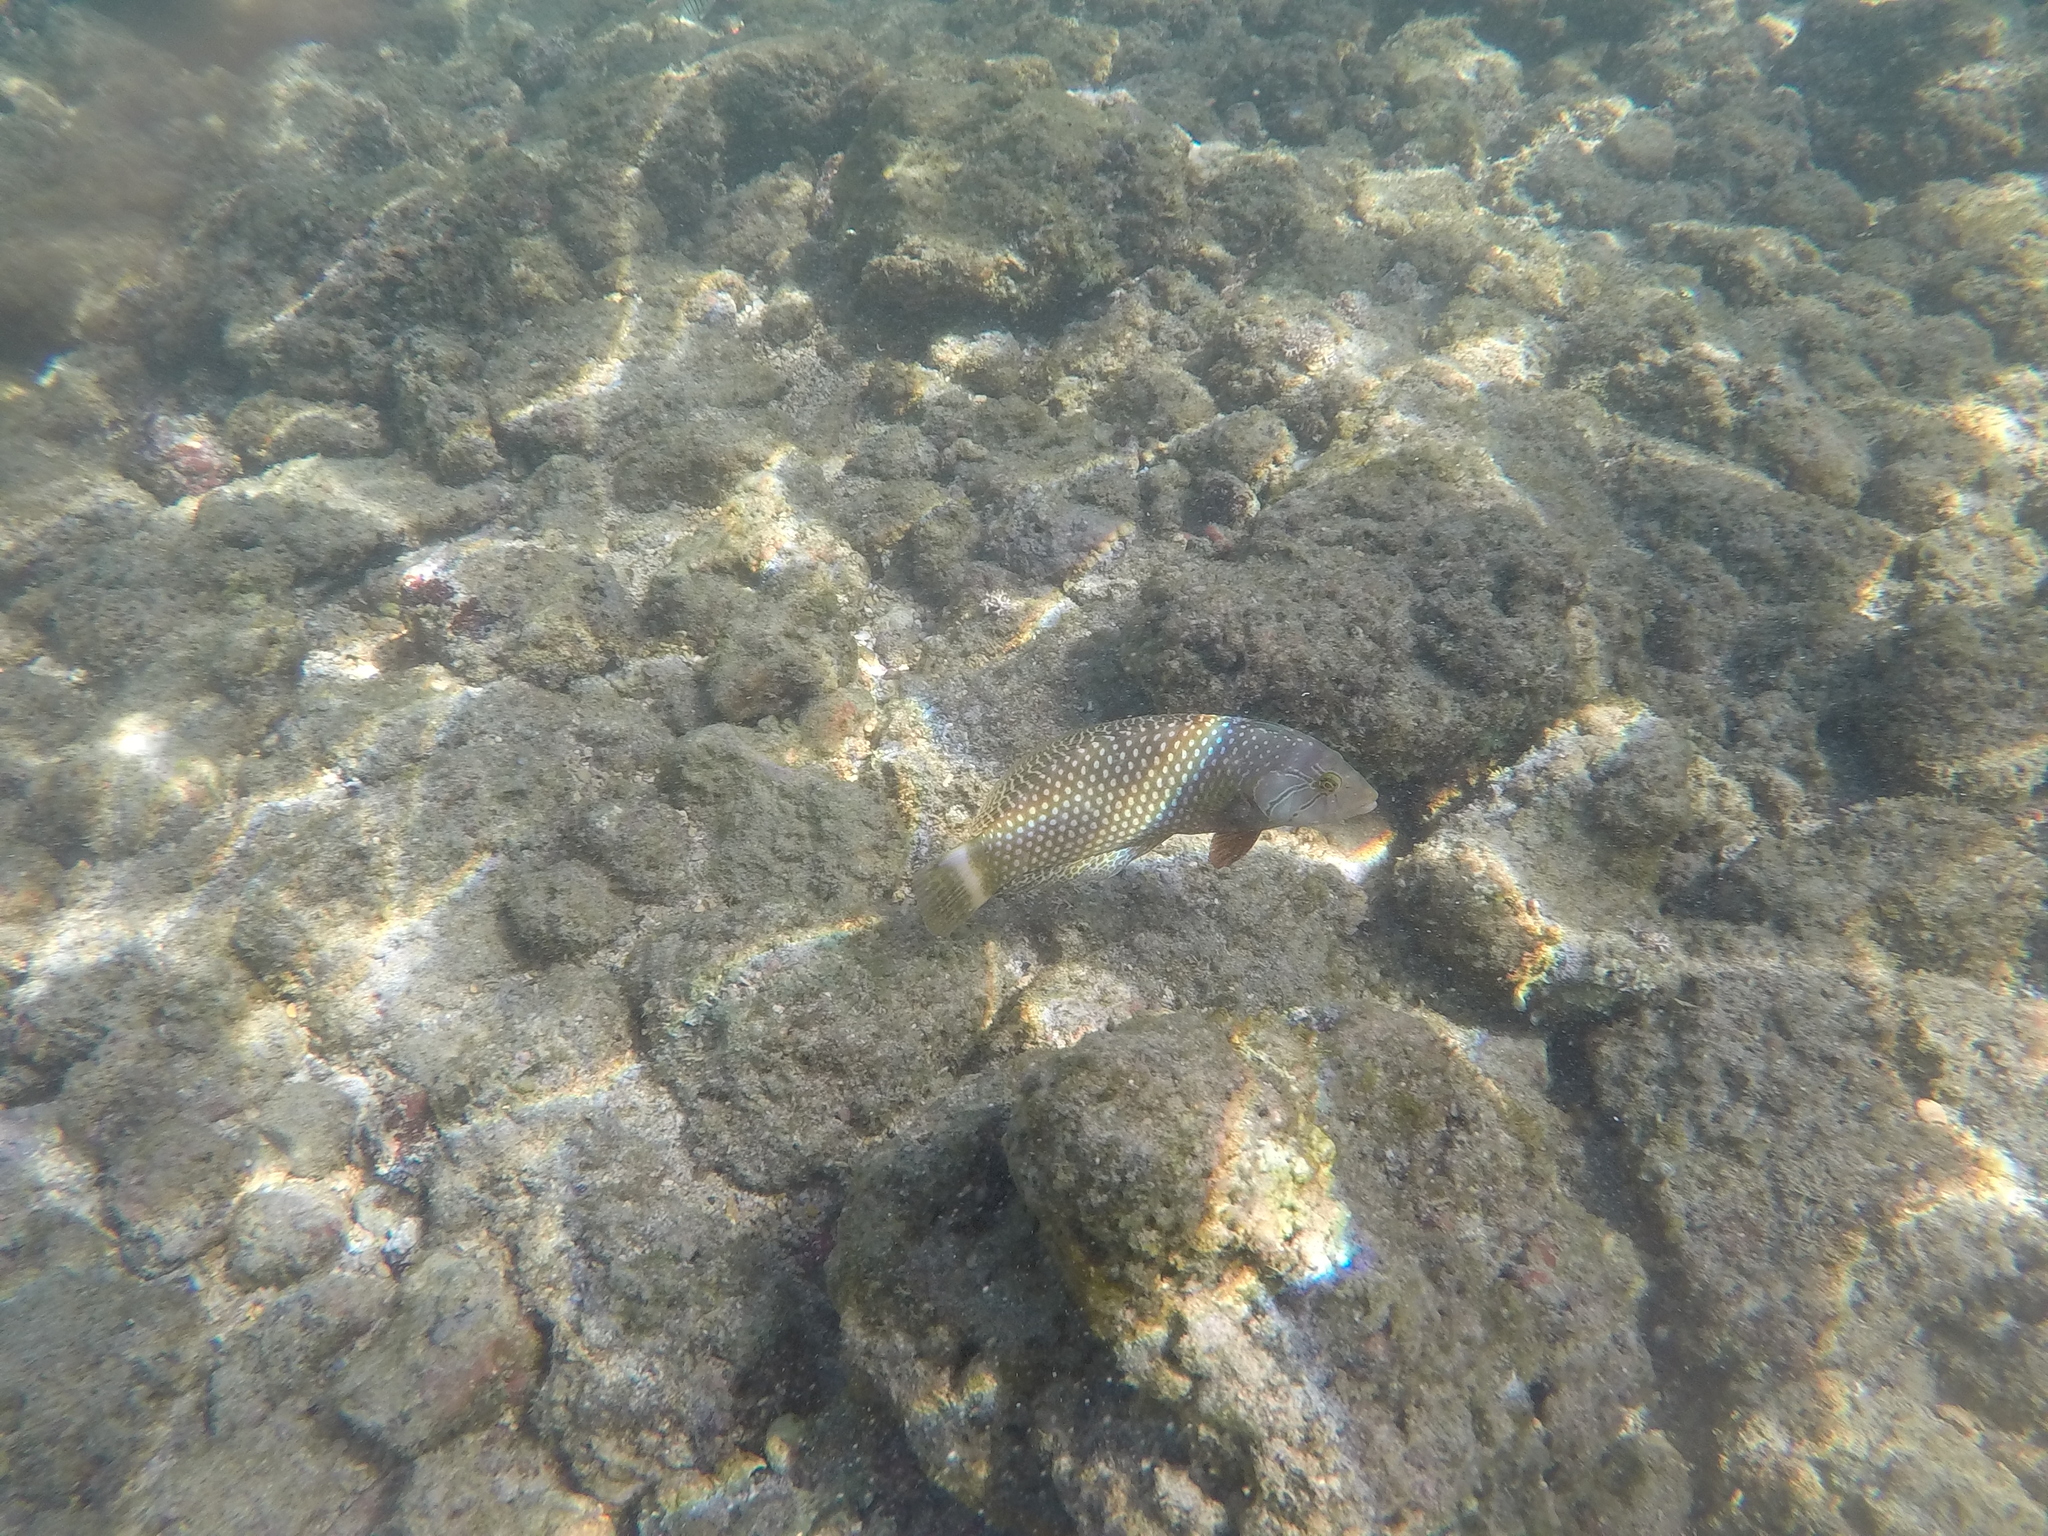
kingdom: Animalia
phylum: Chordata
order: Perciformes
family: Labridae
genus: Novaculichthys
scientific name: Novaculichthys taeniourus
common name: Rockmover wrasse
